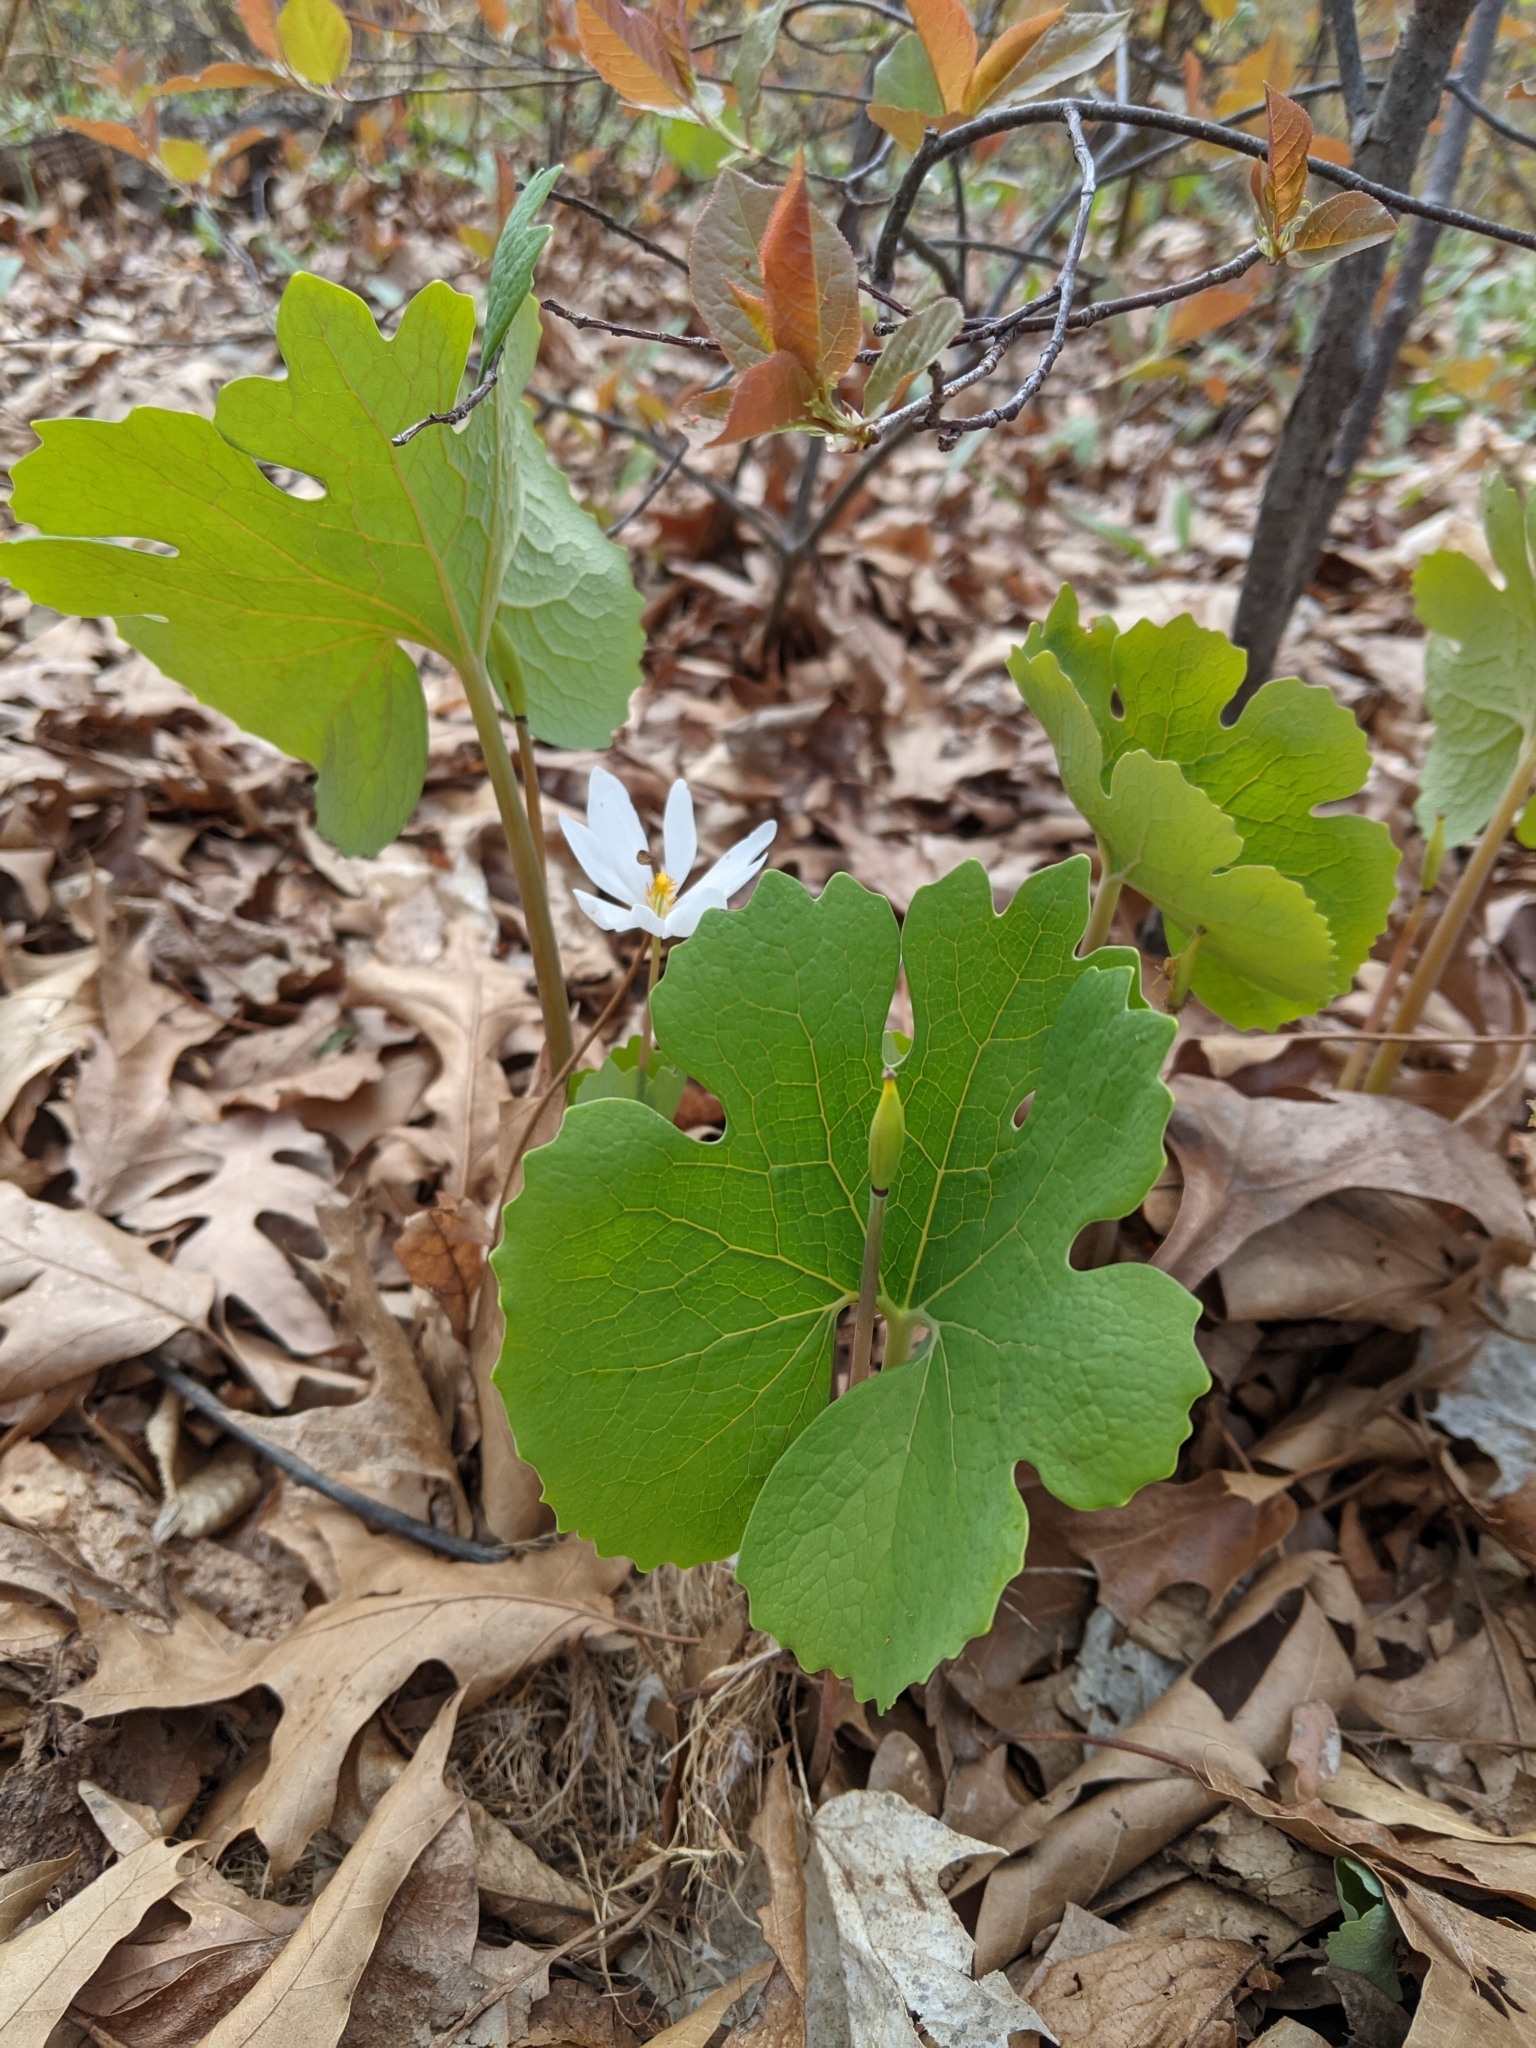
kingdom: Plantae
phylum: Tracheophyta
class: Magnoliopsida
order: Ranunculales
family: Papaveraceae
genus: Sanguinaria
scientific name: Sanguinaria canadensis
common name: Bloodroot
